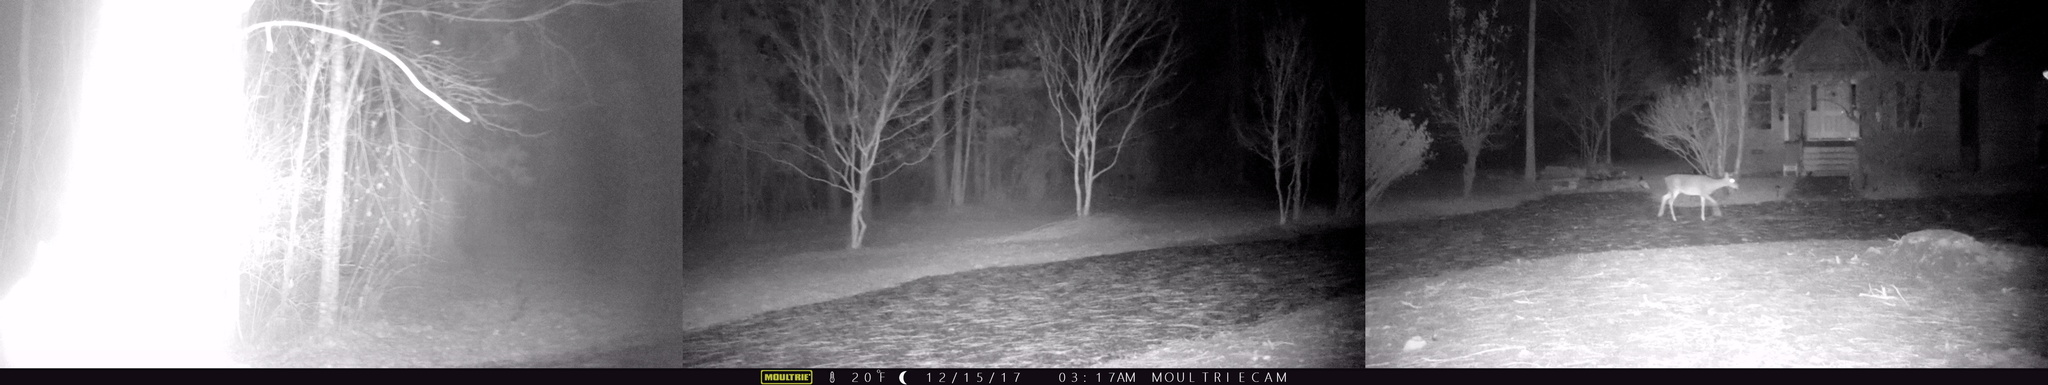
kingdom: Animalia
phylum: Chordata
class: Mammalia
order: Artiodactyla
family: Cervidae
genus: Odocoileus
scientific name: Odocoileus virginianus
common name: White-tailed deer
